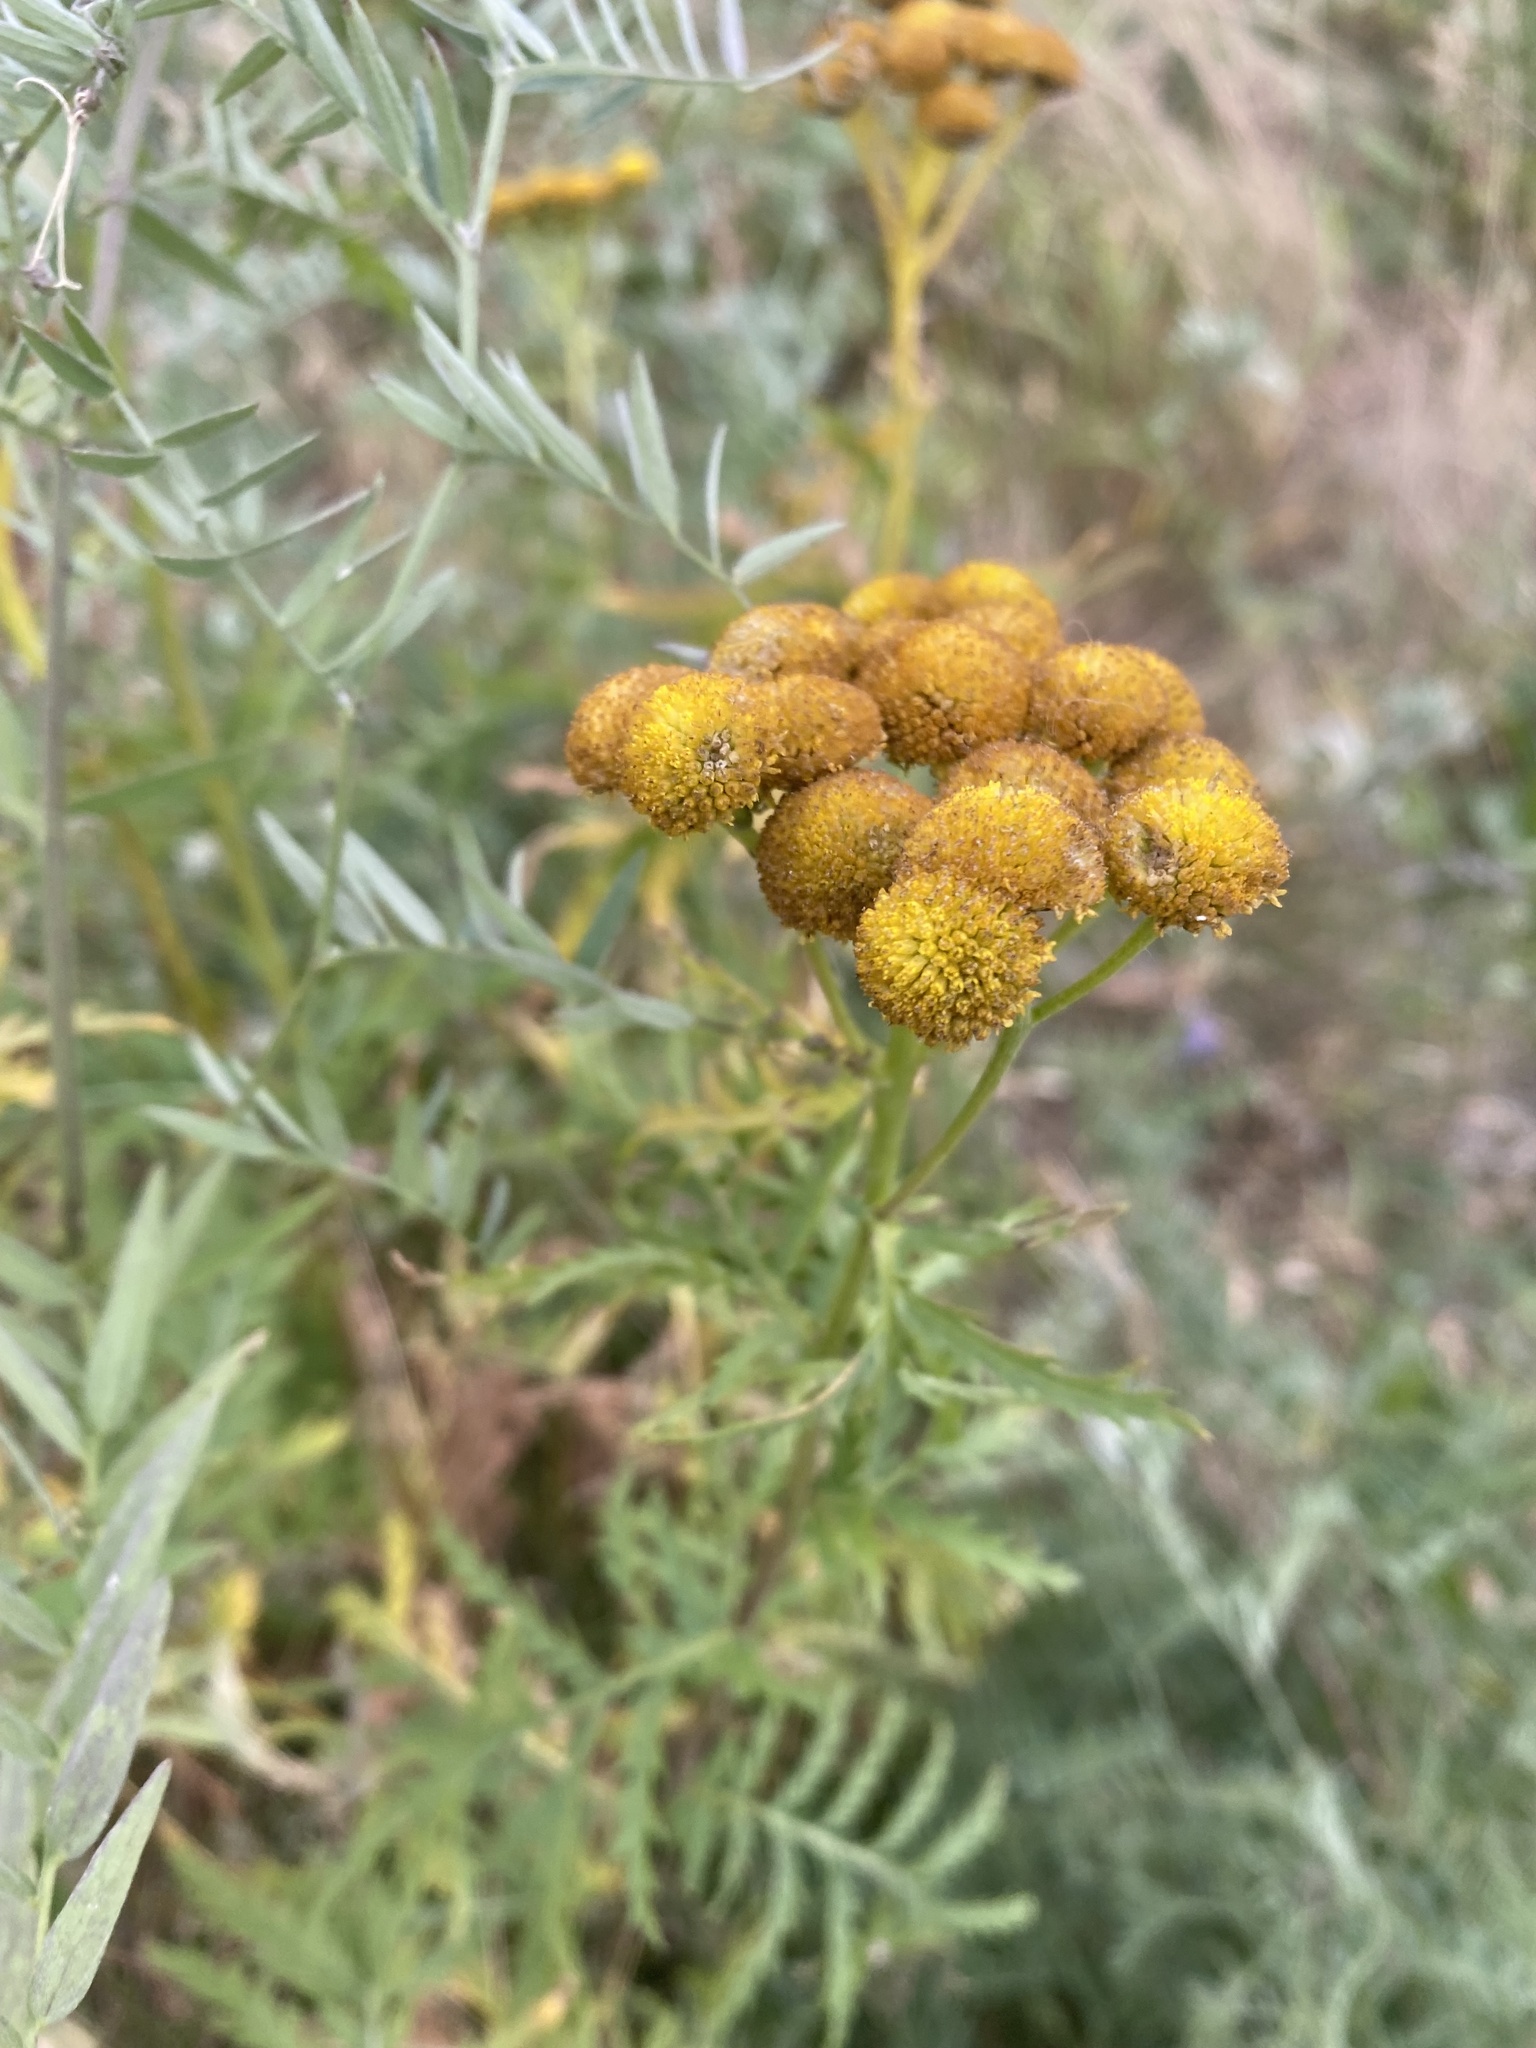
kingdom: Plantae
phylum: Tracheophyta
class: Magnoliopsida
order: Asterales
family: Asteraceae
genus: Tanacetum
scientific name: Tanacetum vulgare
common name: Common tansy
